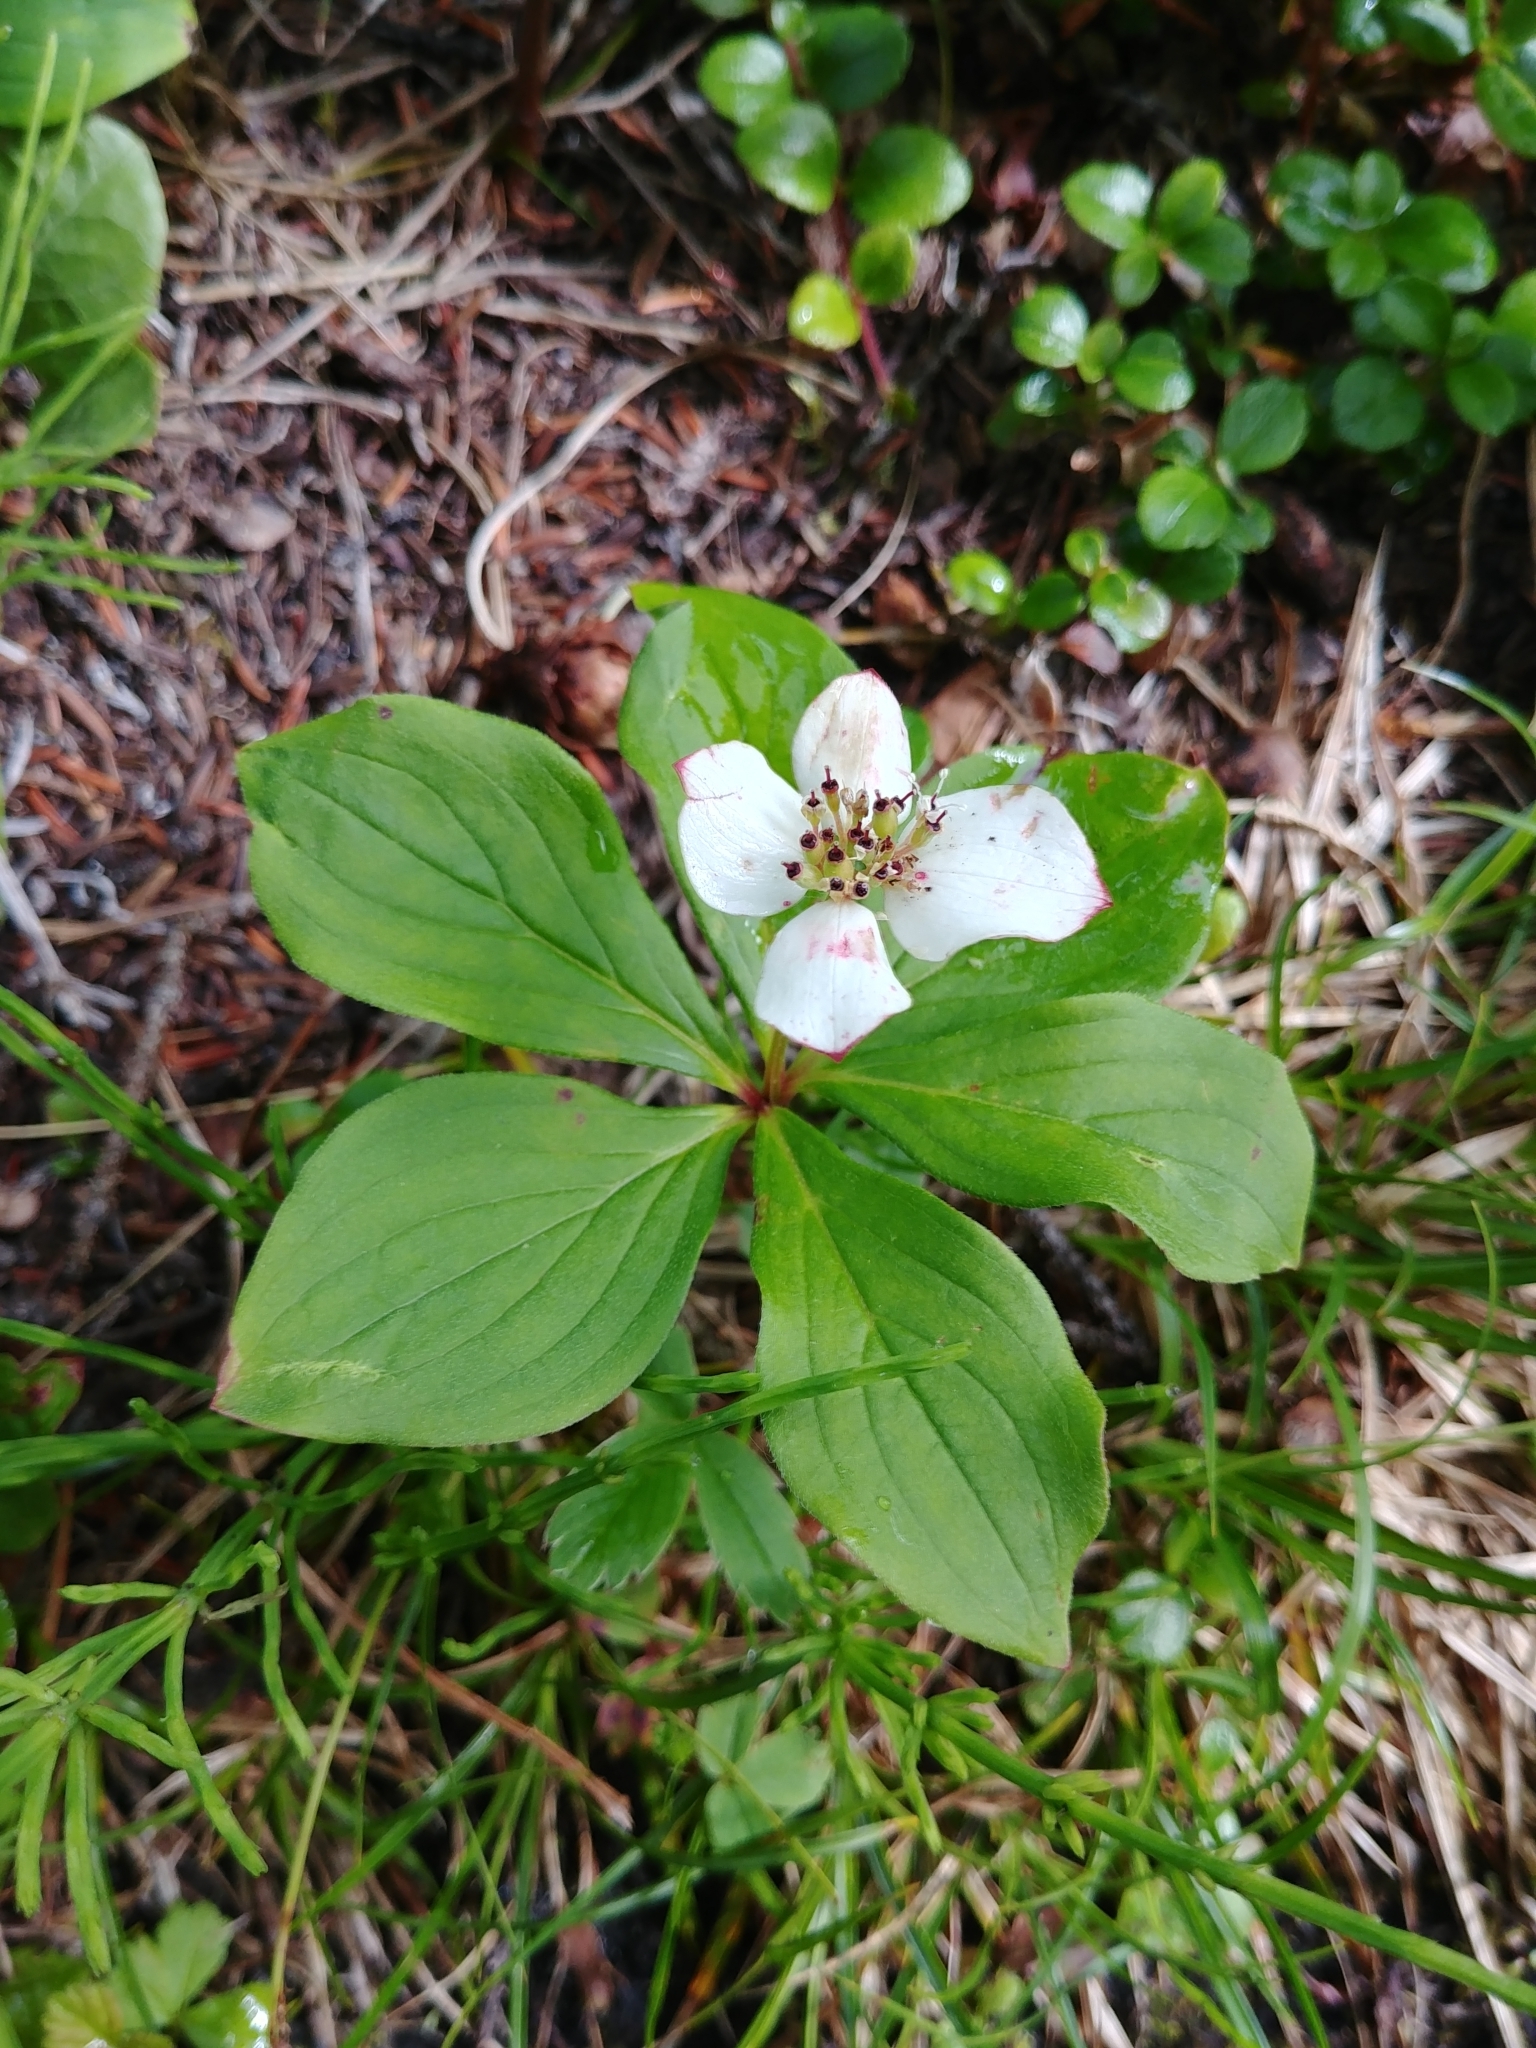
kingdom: Plantae
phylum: Tracheophyta
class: Magnoliopsida
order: Cornales
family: Cornaceae
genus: Cornus
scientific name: Cornus canadensis
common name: Creeping dogwood
